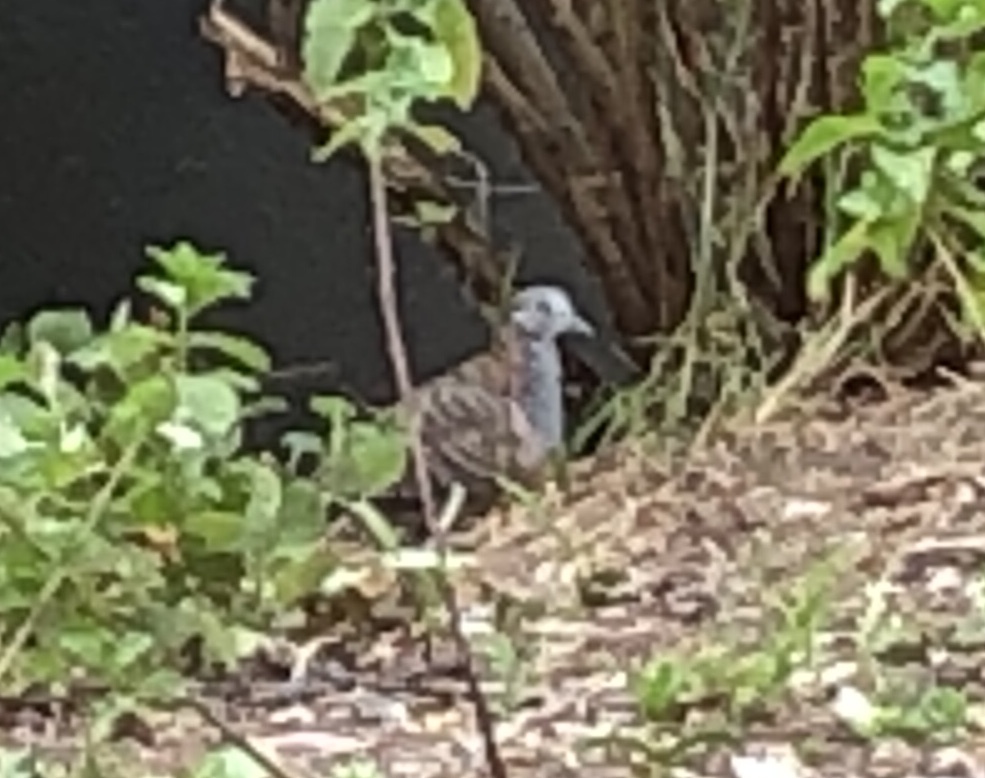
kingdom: Animalia
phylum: Chordata
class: Aves
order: Columbiformes
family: Columbidae
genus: Geopelia
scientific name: Geopelia humeralis
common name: Bar-shouldered dove
